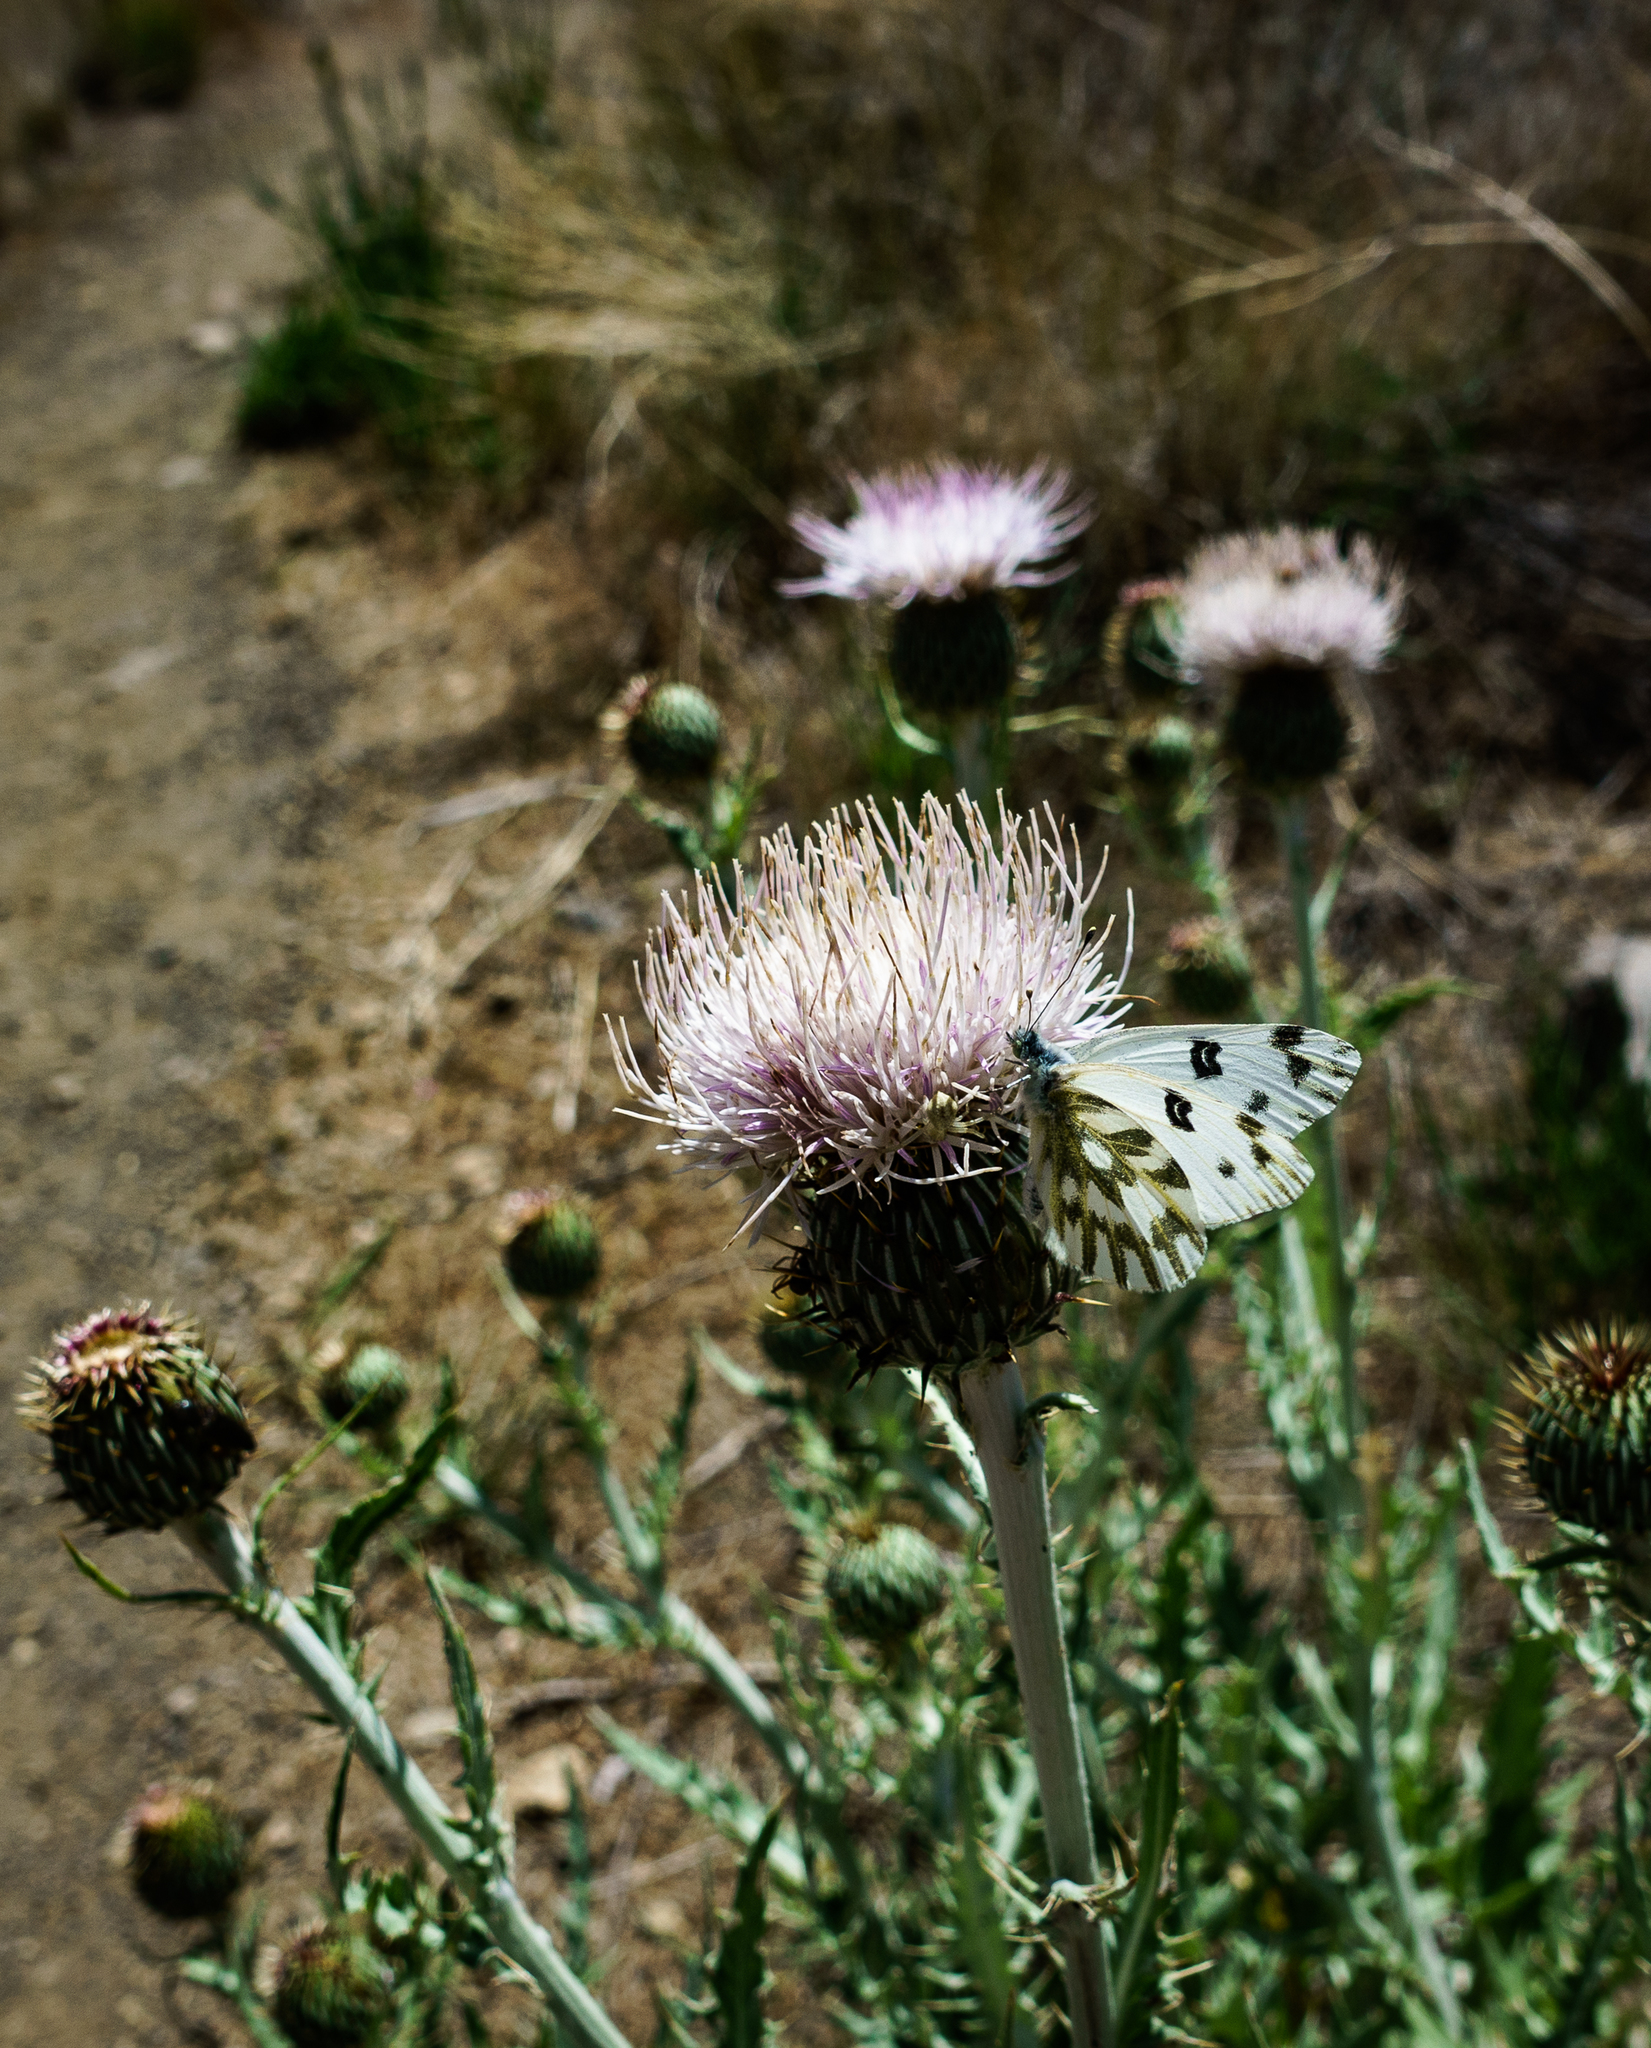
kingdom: Animalia
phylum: Arthropoda
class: Insecta
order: Lepidoptera
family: Pieridae
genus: Pontia
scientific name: Pontia beckerii
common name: Becker's white
